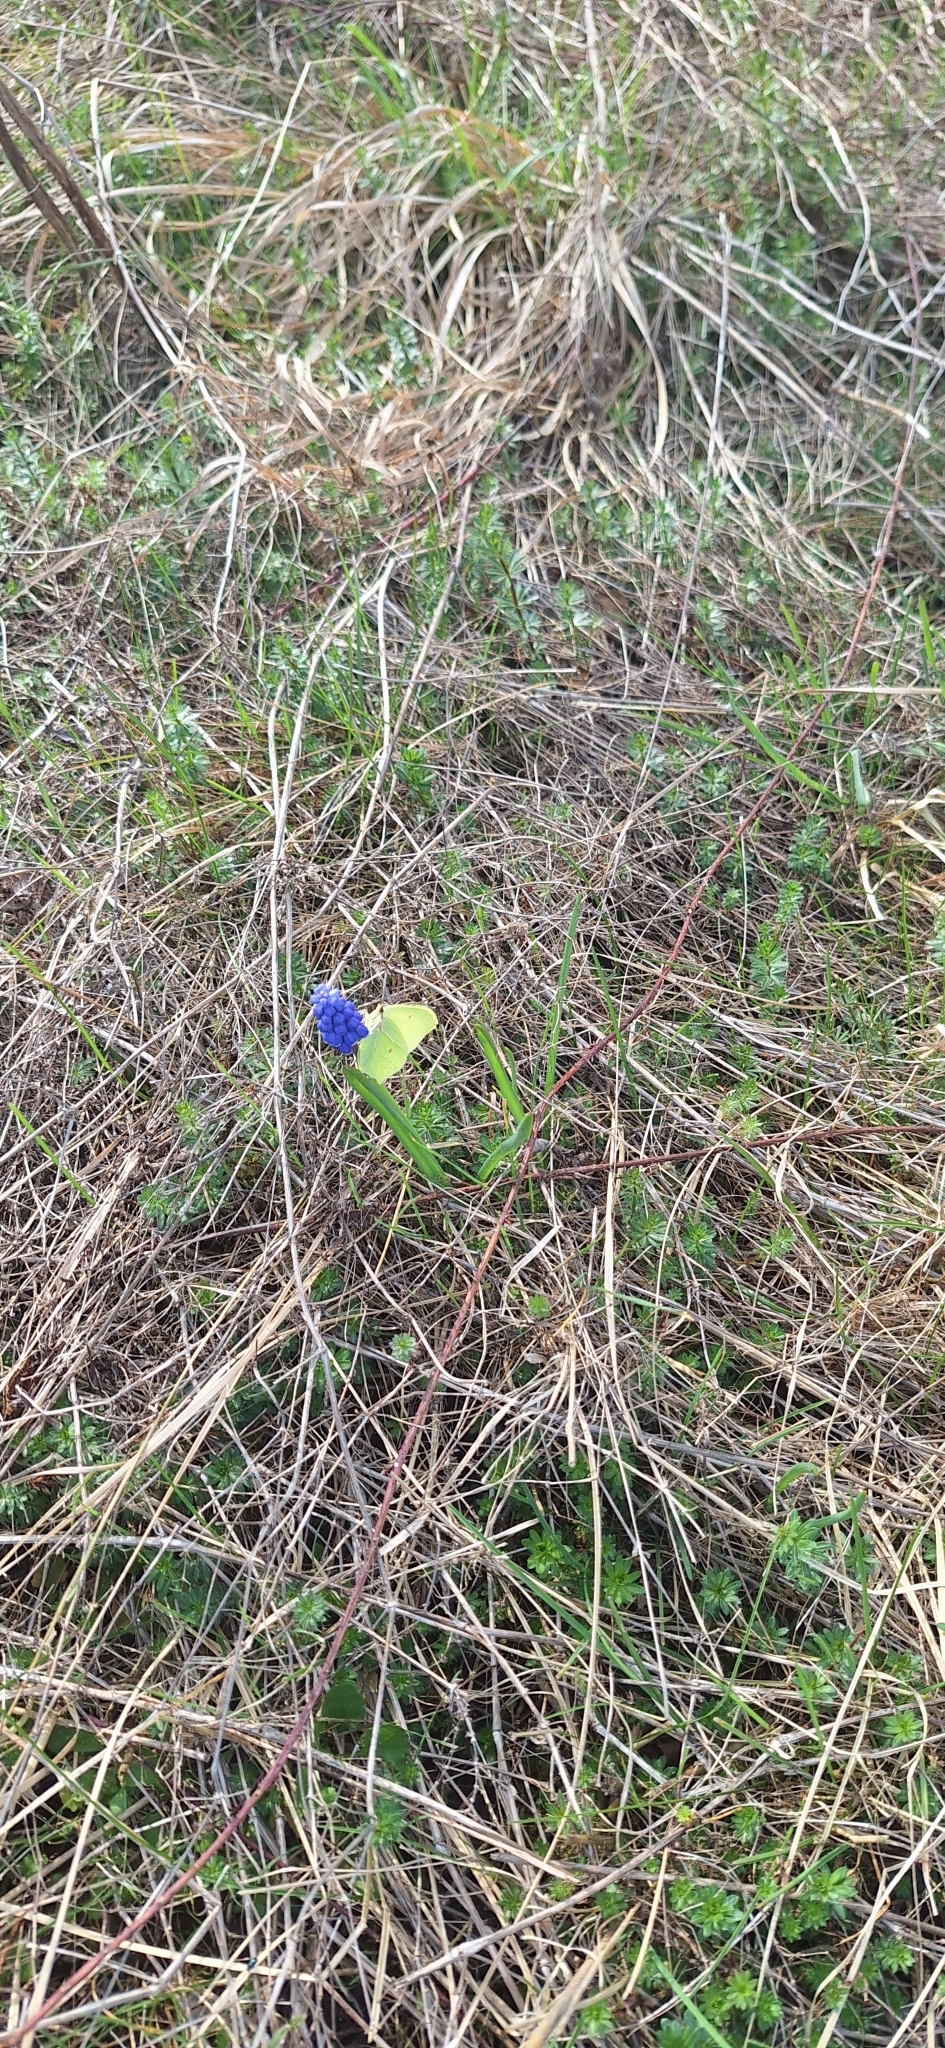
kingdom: Animalia
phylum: Arthropoda
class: Insecta
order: Lepidoptera
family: Pieridae
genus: Gonepteryx
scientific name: Gonepteryx rhamni
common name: Brimstone
